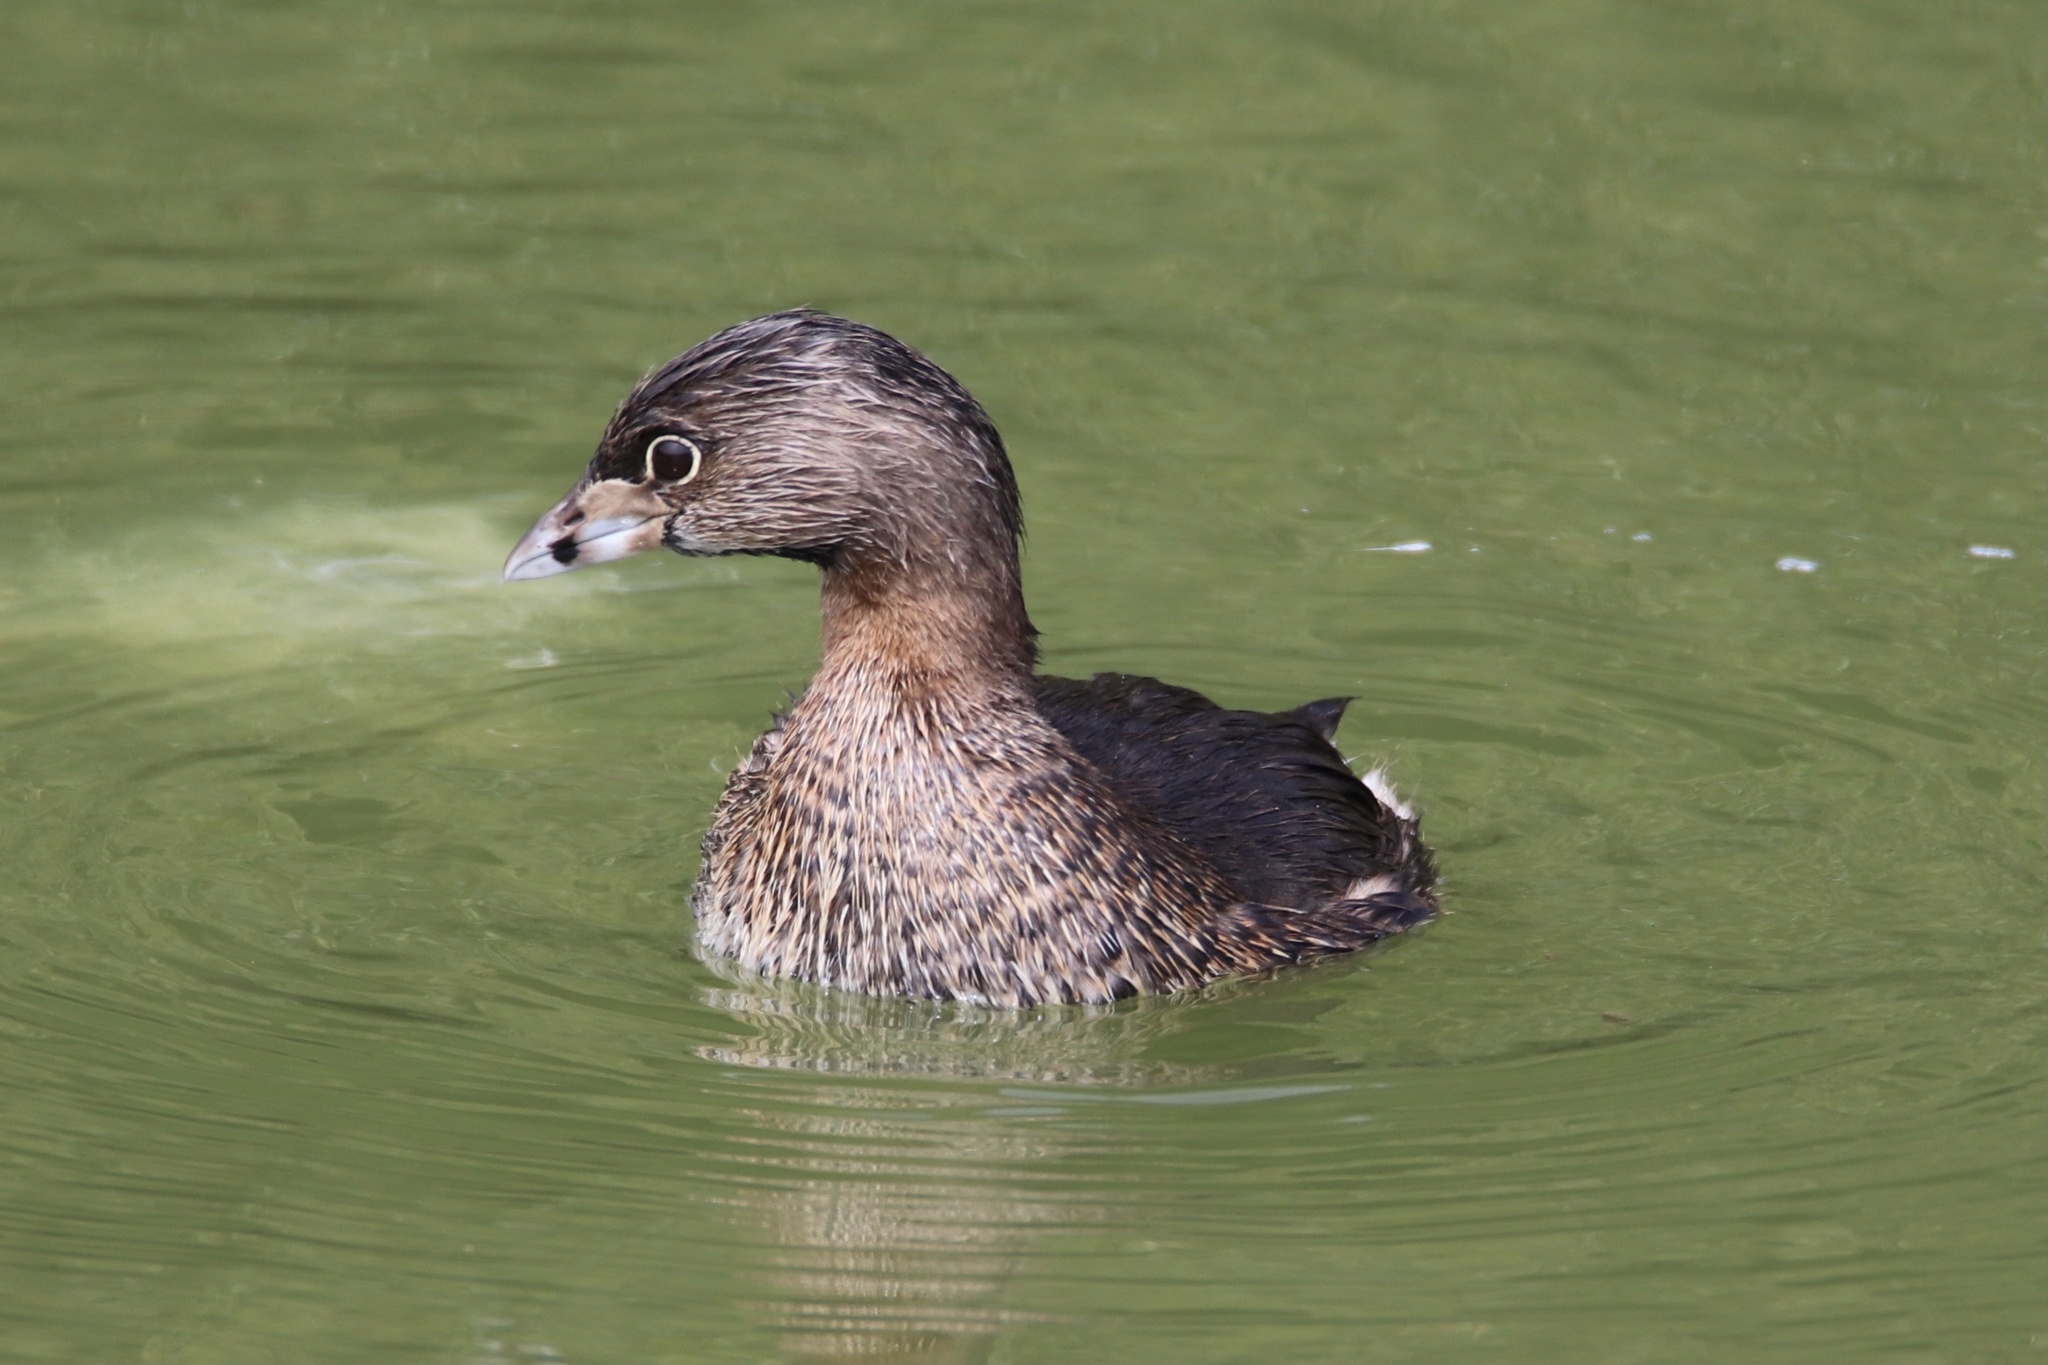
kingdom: Animalia
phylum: Chordata
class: Aves
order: Podicipediformes
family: Podicipedidae
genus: Podilymbus
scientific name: Podilymbus podiceps
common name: Pied-billed grebe
